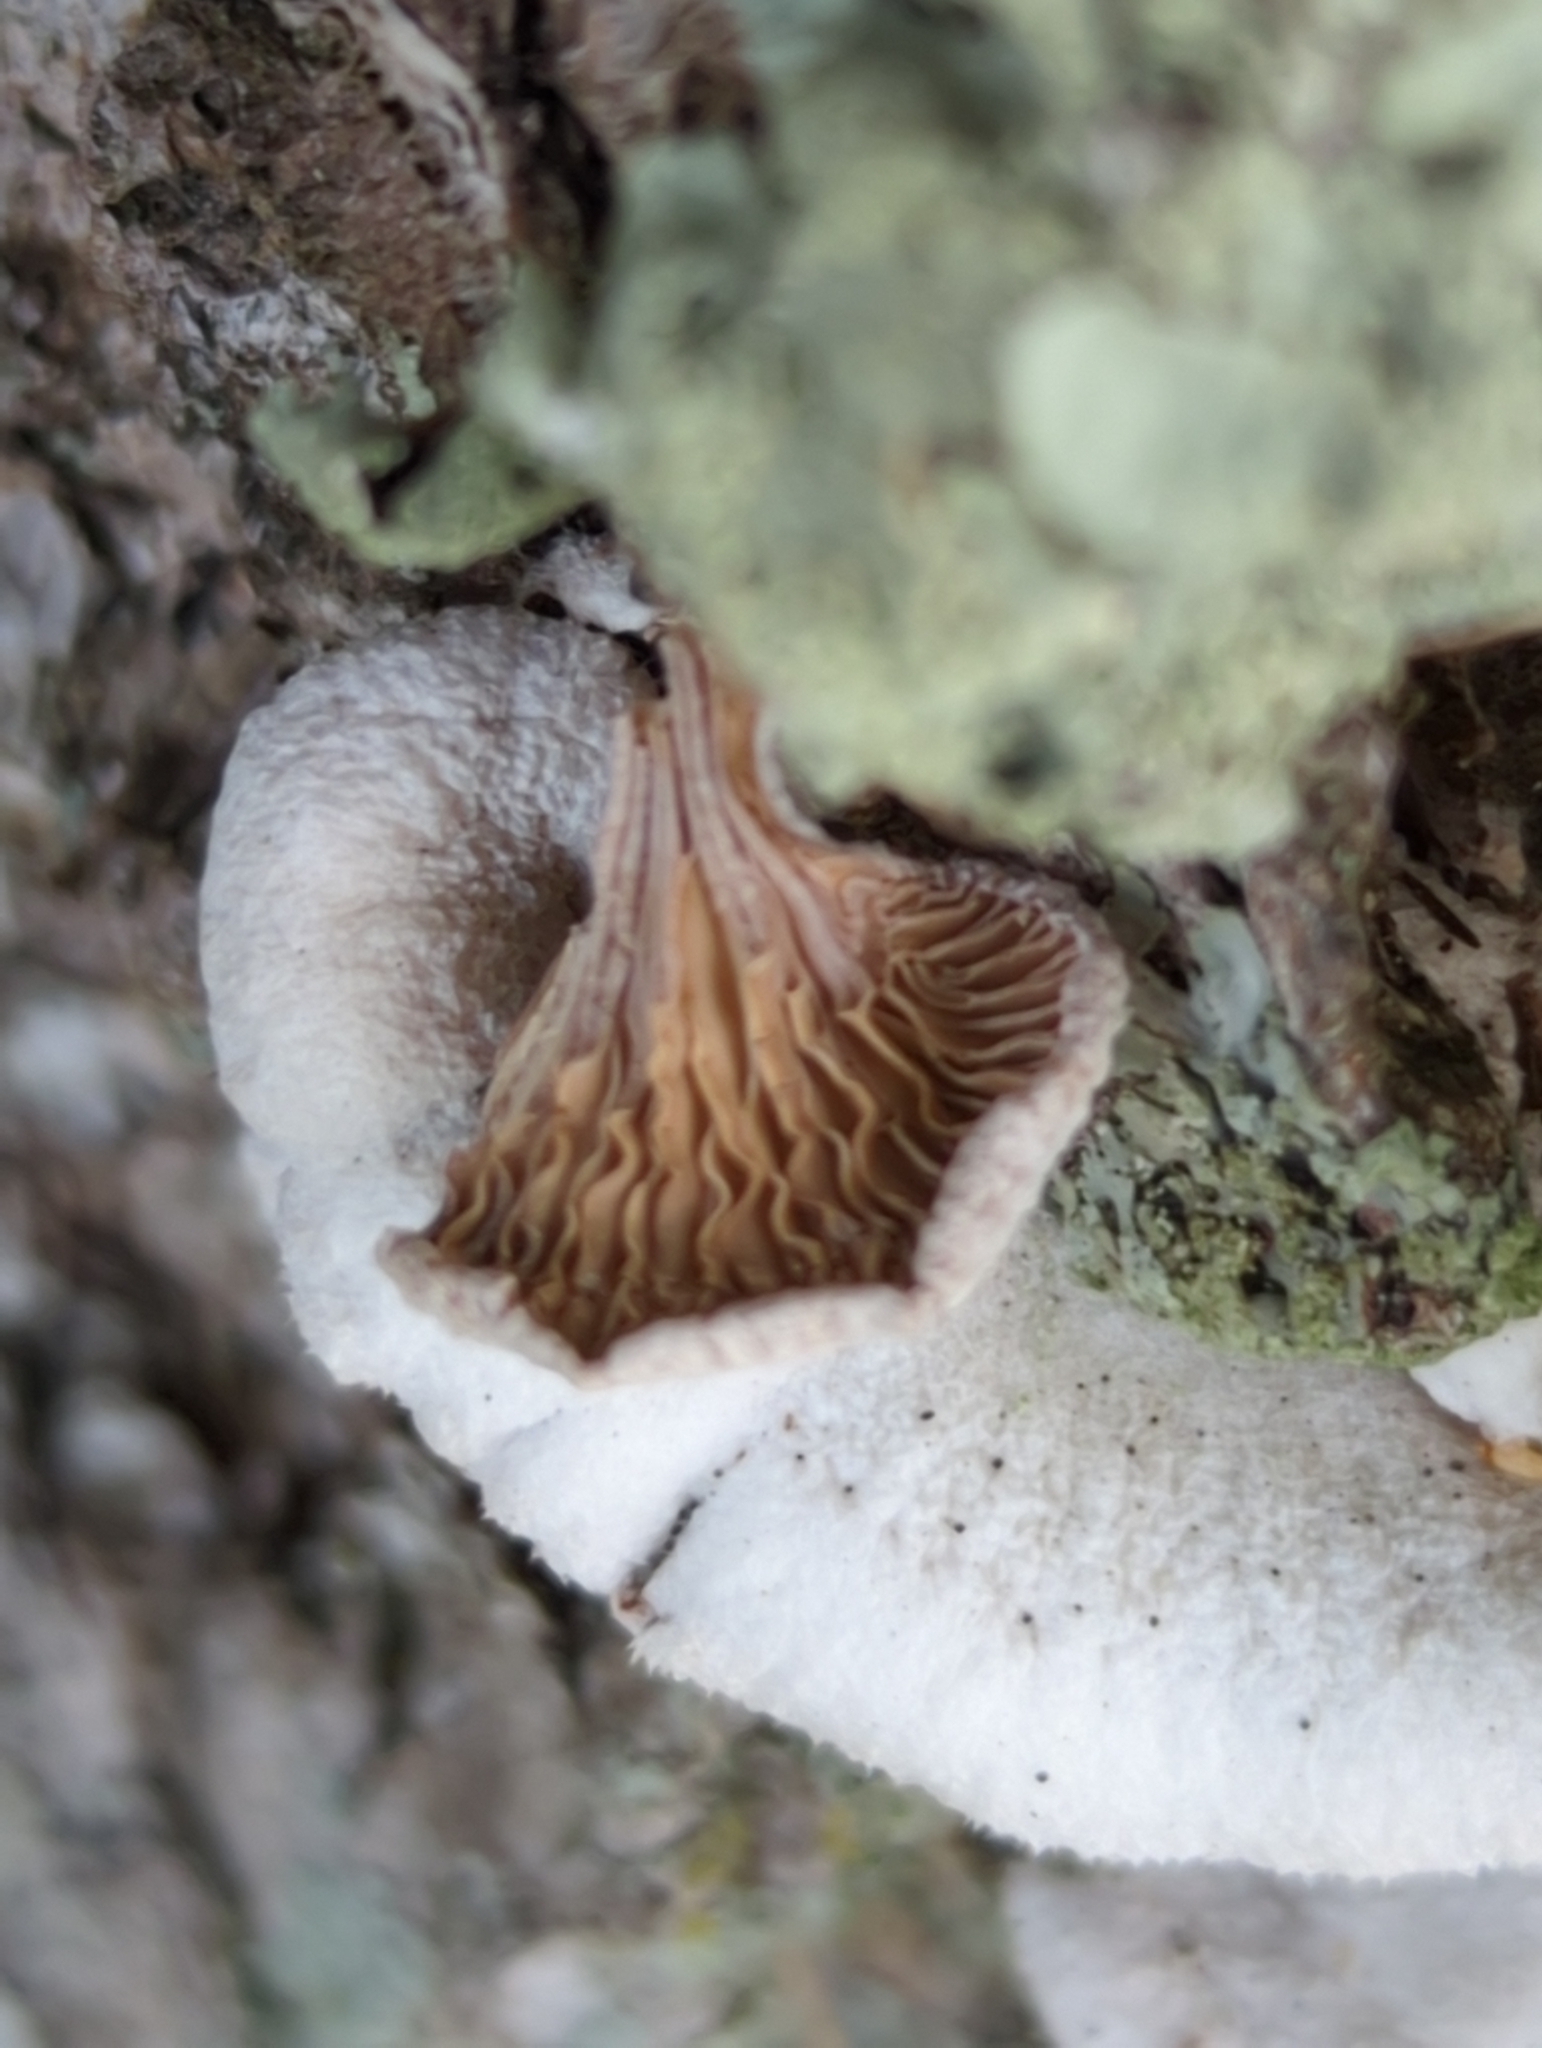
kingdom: Fungi
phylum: Basidiomycota
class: Agaricomycetes
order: Agaricales
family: Schizophyllaceae
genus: Schizophyllum
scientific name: Schizophyllum commune
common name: Common porecrust
